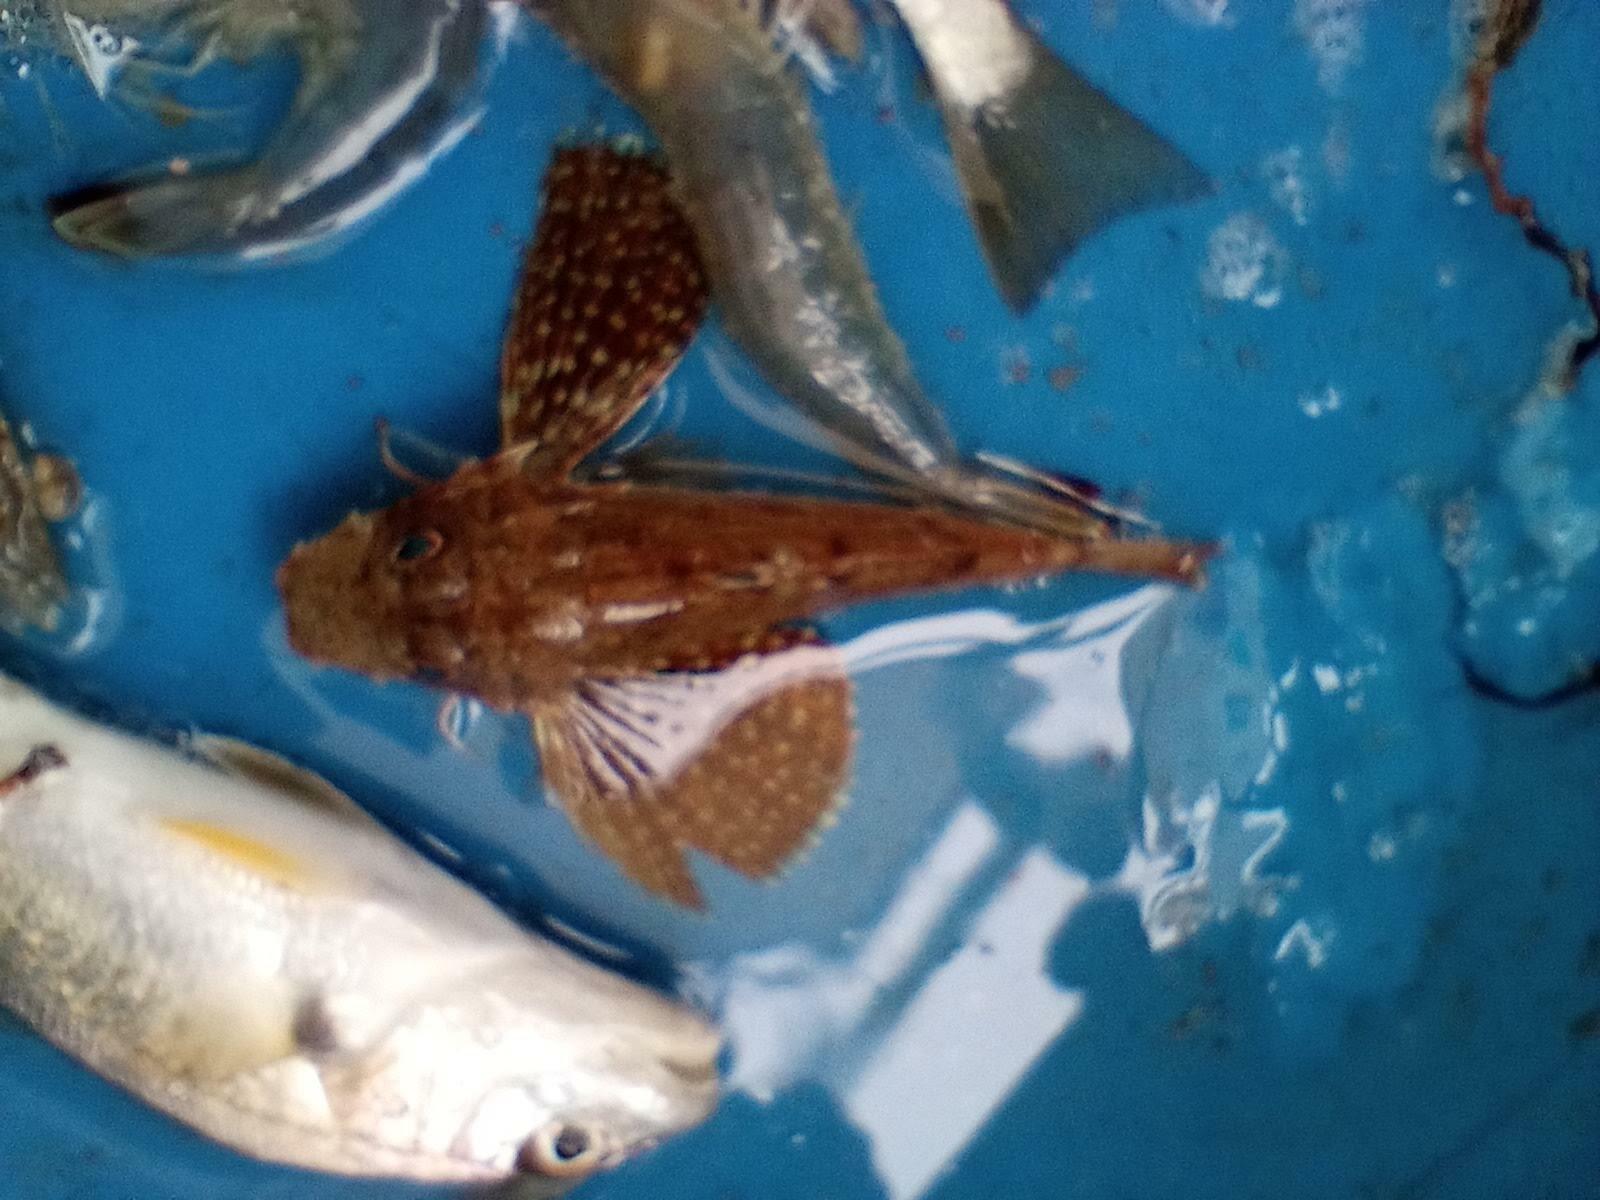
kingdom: Animalia
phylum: Chordata
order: Scorpaeniformes
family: Triglidae
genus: Prionotus
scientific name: Prionotus rubio
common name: Blackwing searobin
